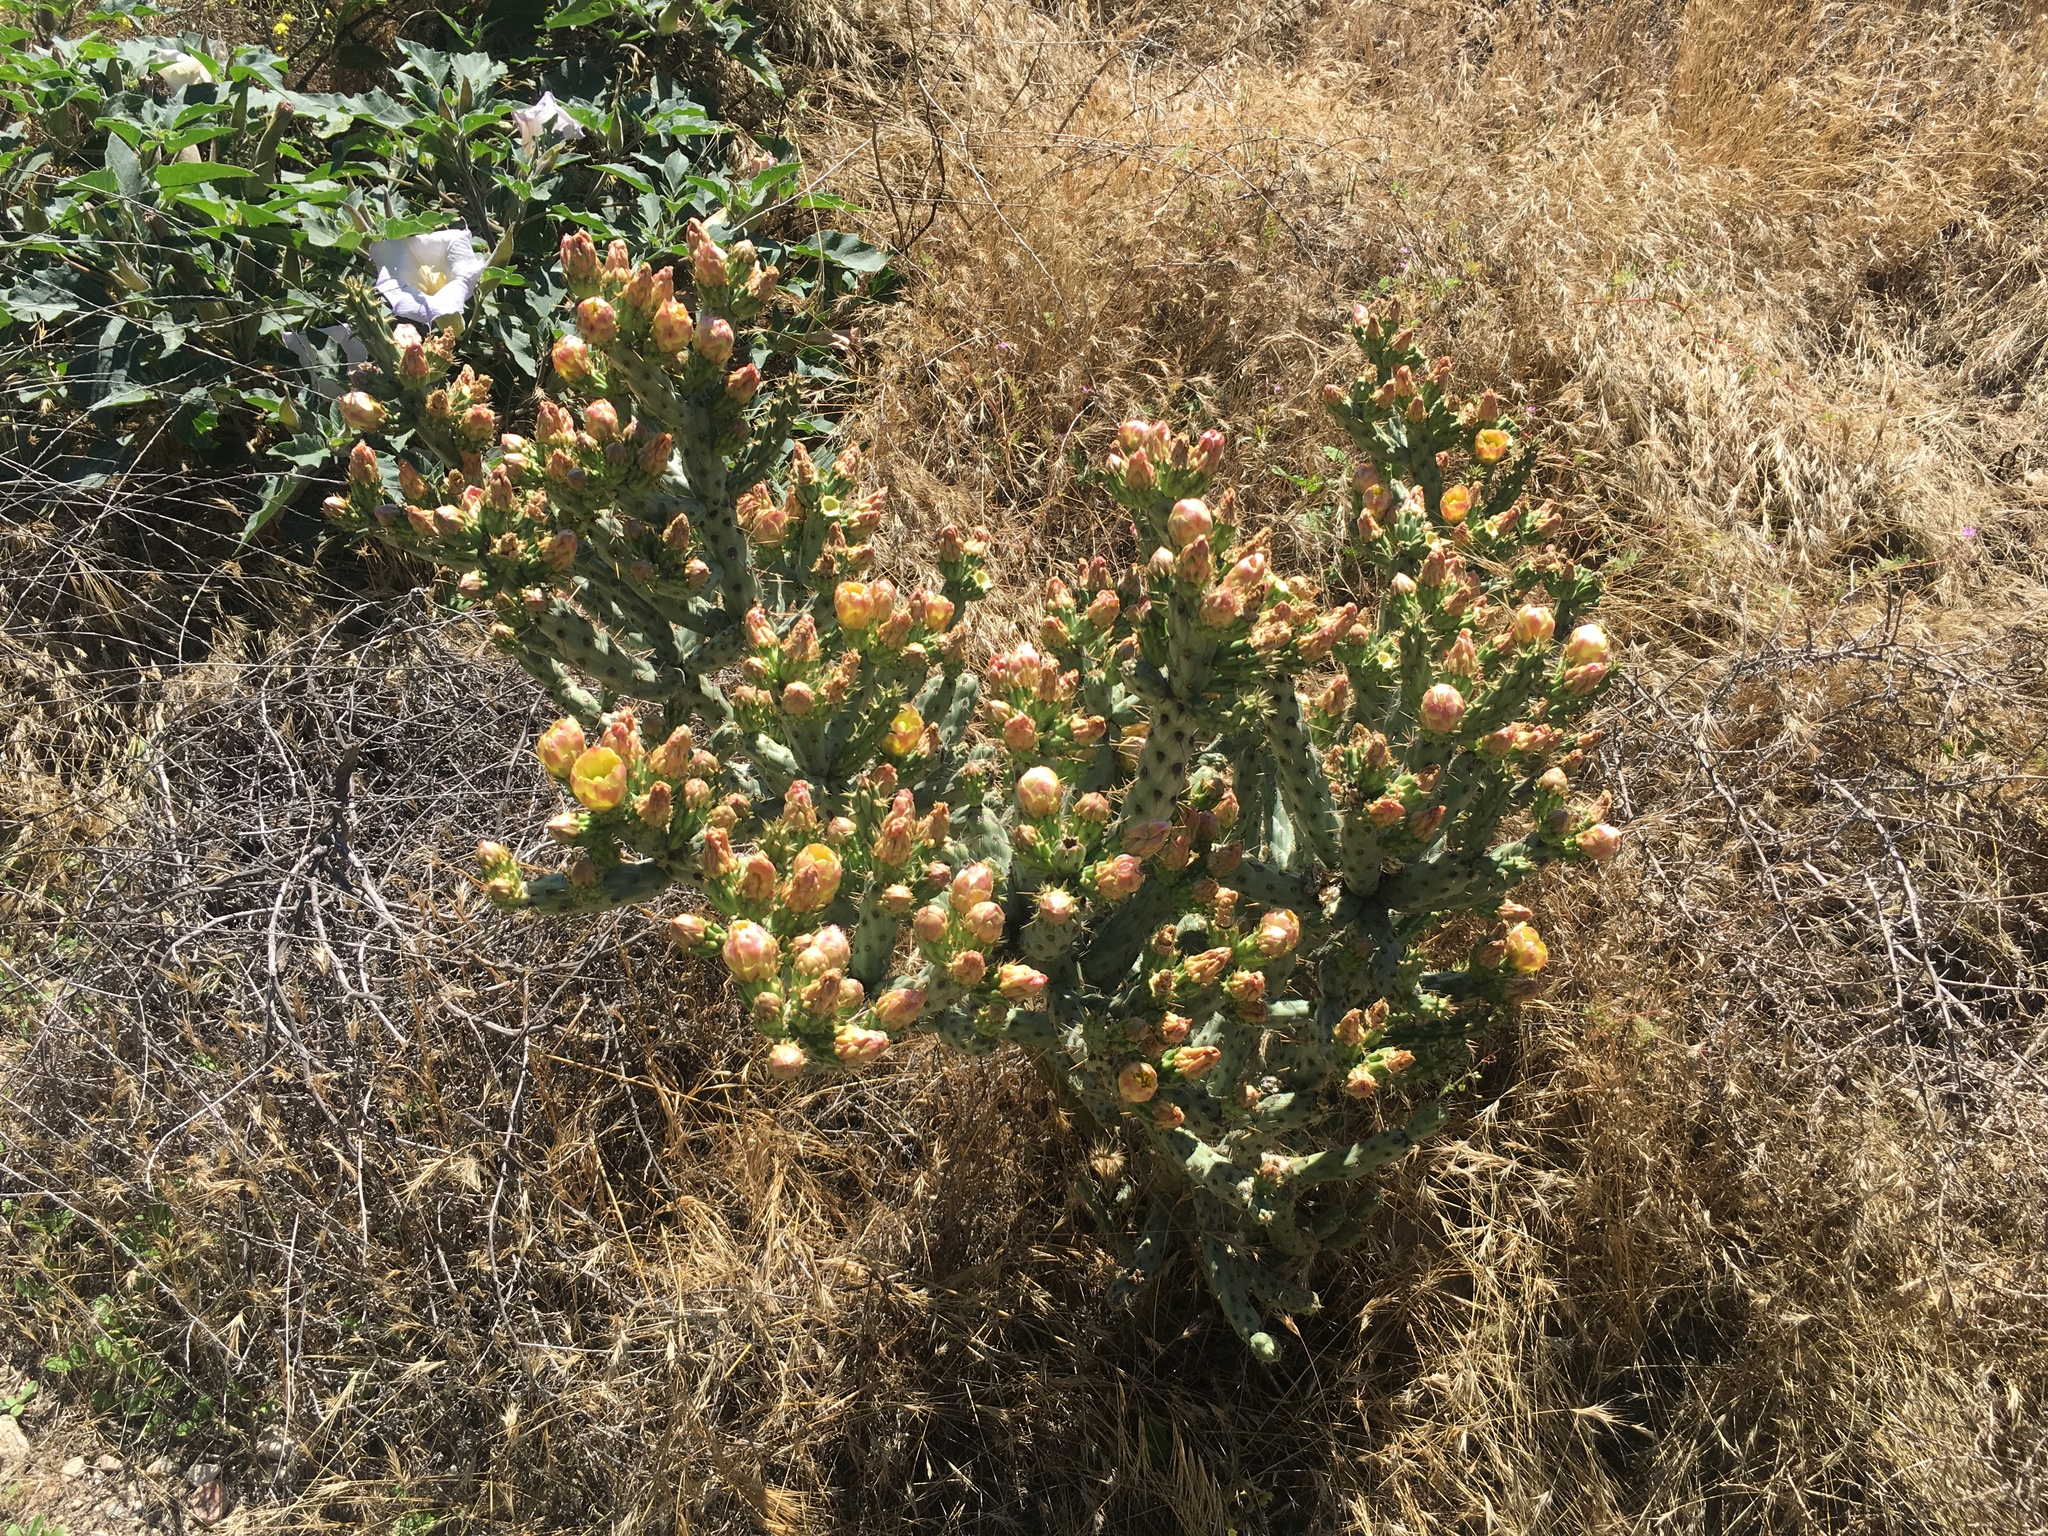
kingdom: Plantae
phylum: Tracheophyta
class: Magnoliopsida
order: Caryophyllales
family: Cactaceae
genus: Cylindropuntia
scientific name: Cylindropuntia bernardina
